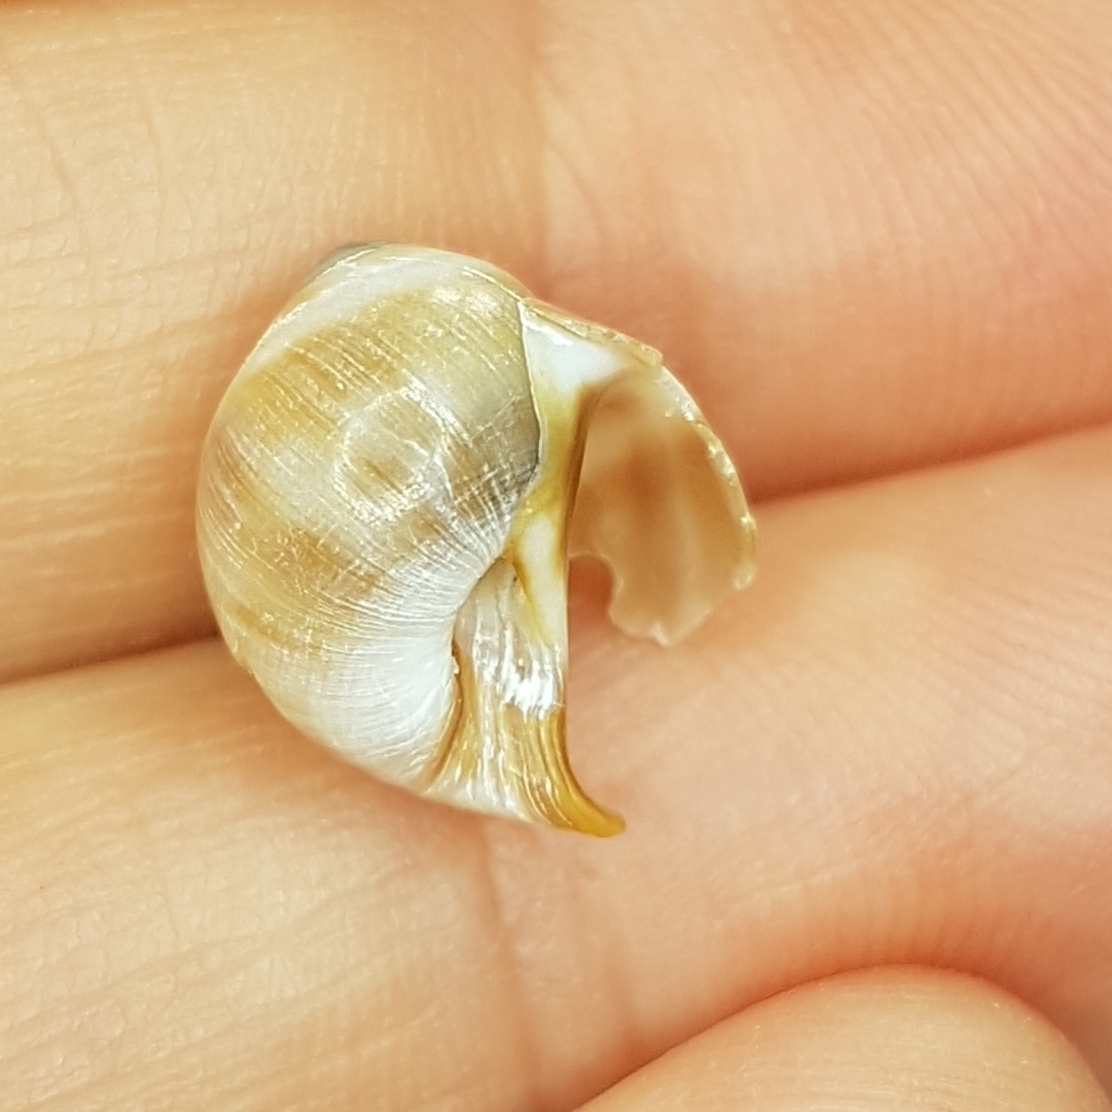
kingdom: Animalia
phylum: Mollusca
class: Gastropoda
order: Littorinimorpha
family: Naticidae
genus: Euspira
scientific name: Euspira macilenta
